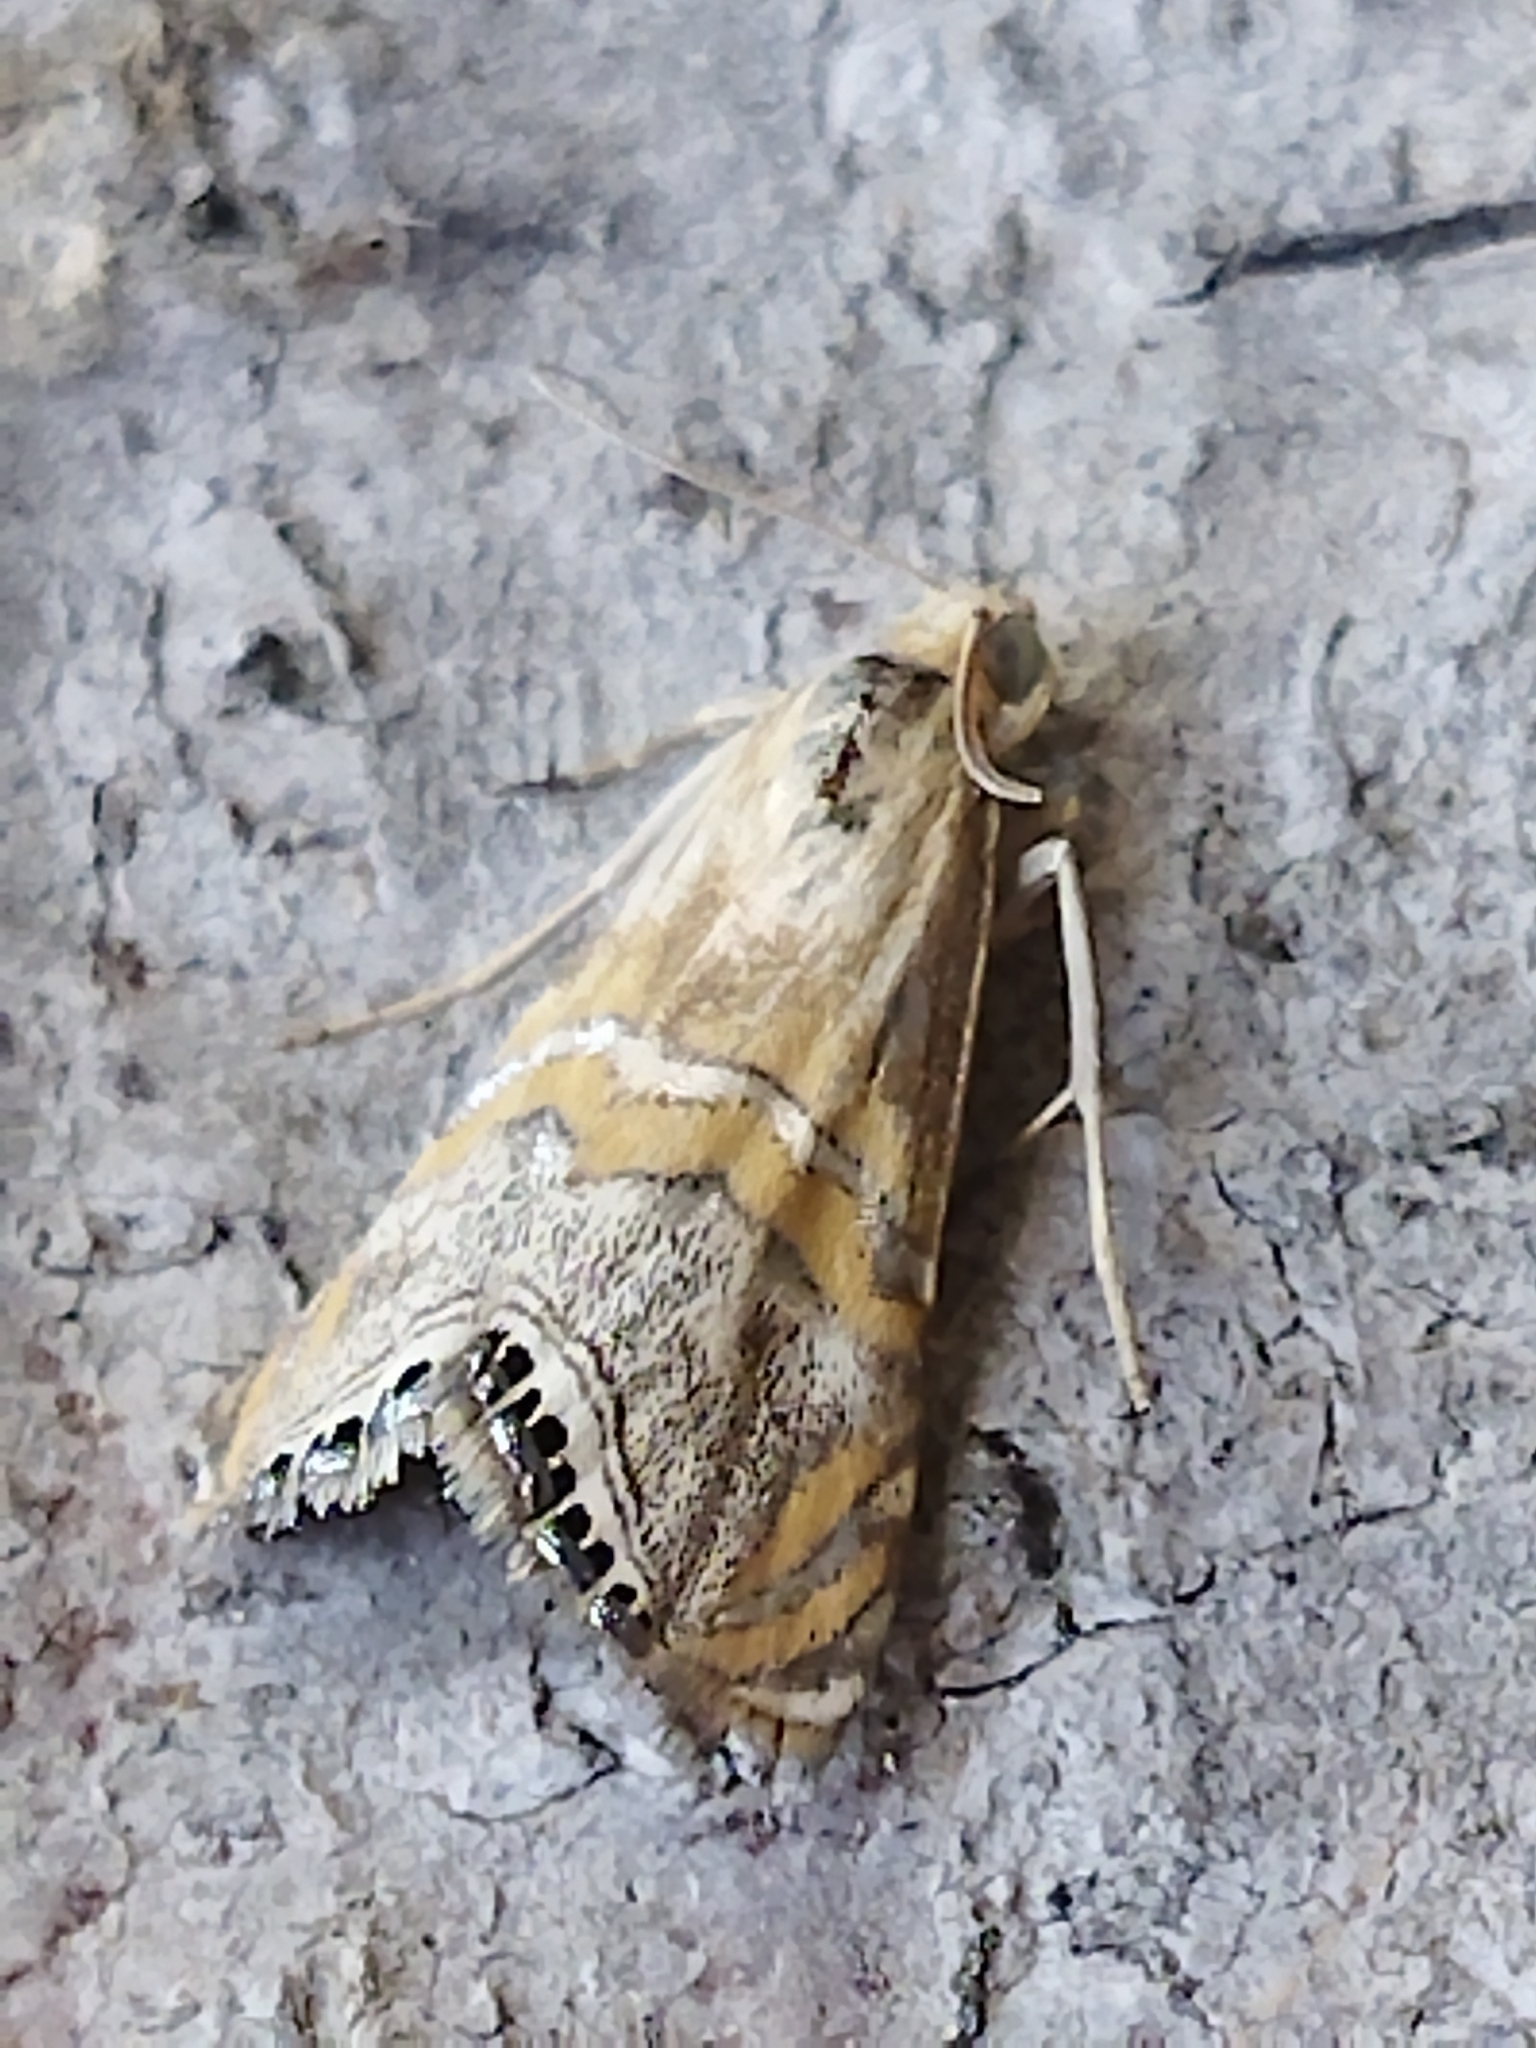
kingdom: Animalia
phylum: Arthropoda
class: Insecta
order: Lepidoptera
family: Crambidae
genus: Euchromius
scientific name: Euchromius bella
